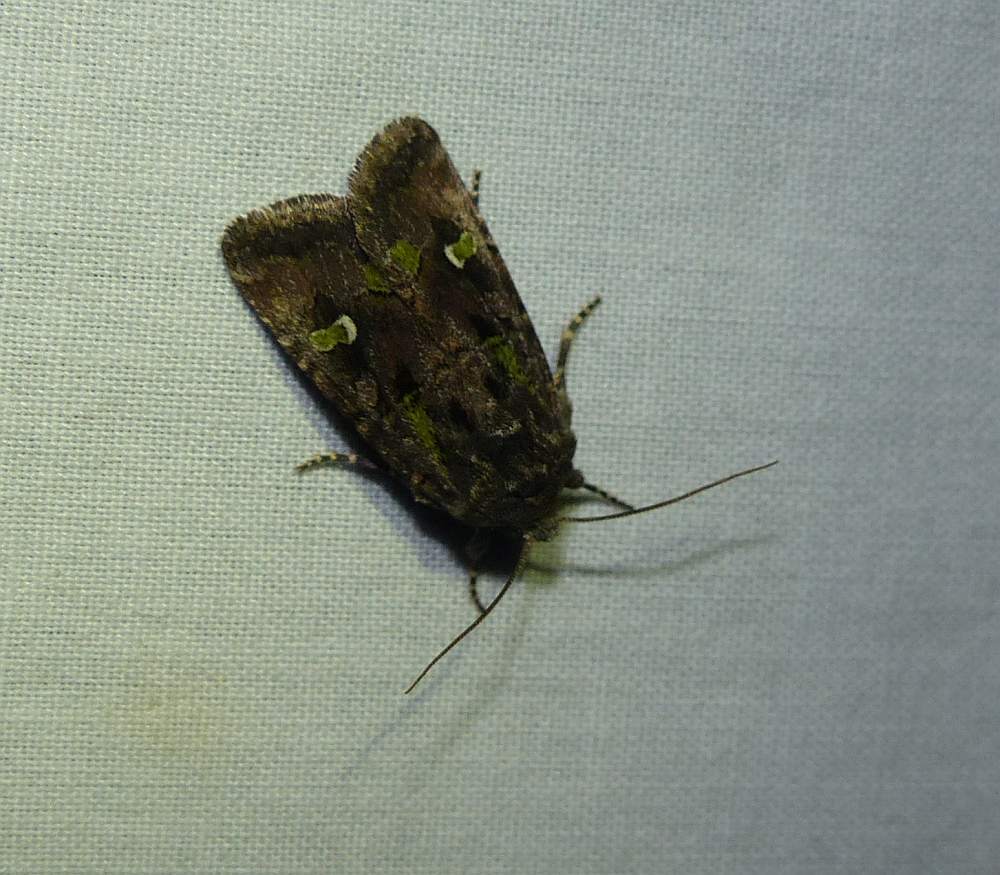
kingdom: Animalia
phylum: Arthropoda
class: Insecta
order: Lepidoptera
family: Noctuidae
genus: Lacinipolia
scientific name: Lacinipolia renigera
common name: Kidney-spotted minor
